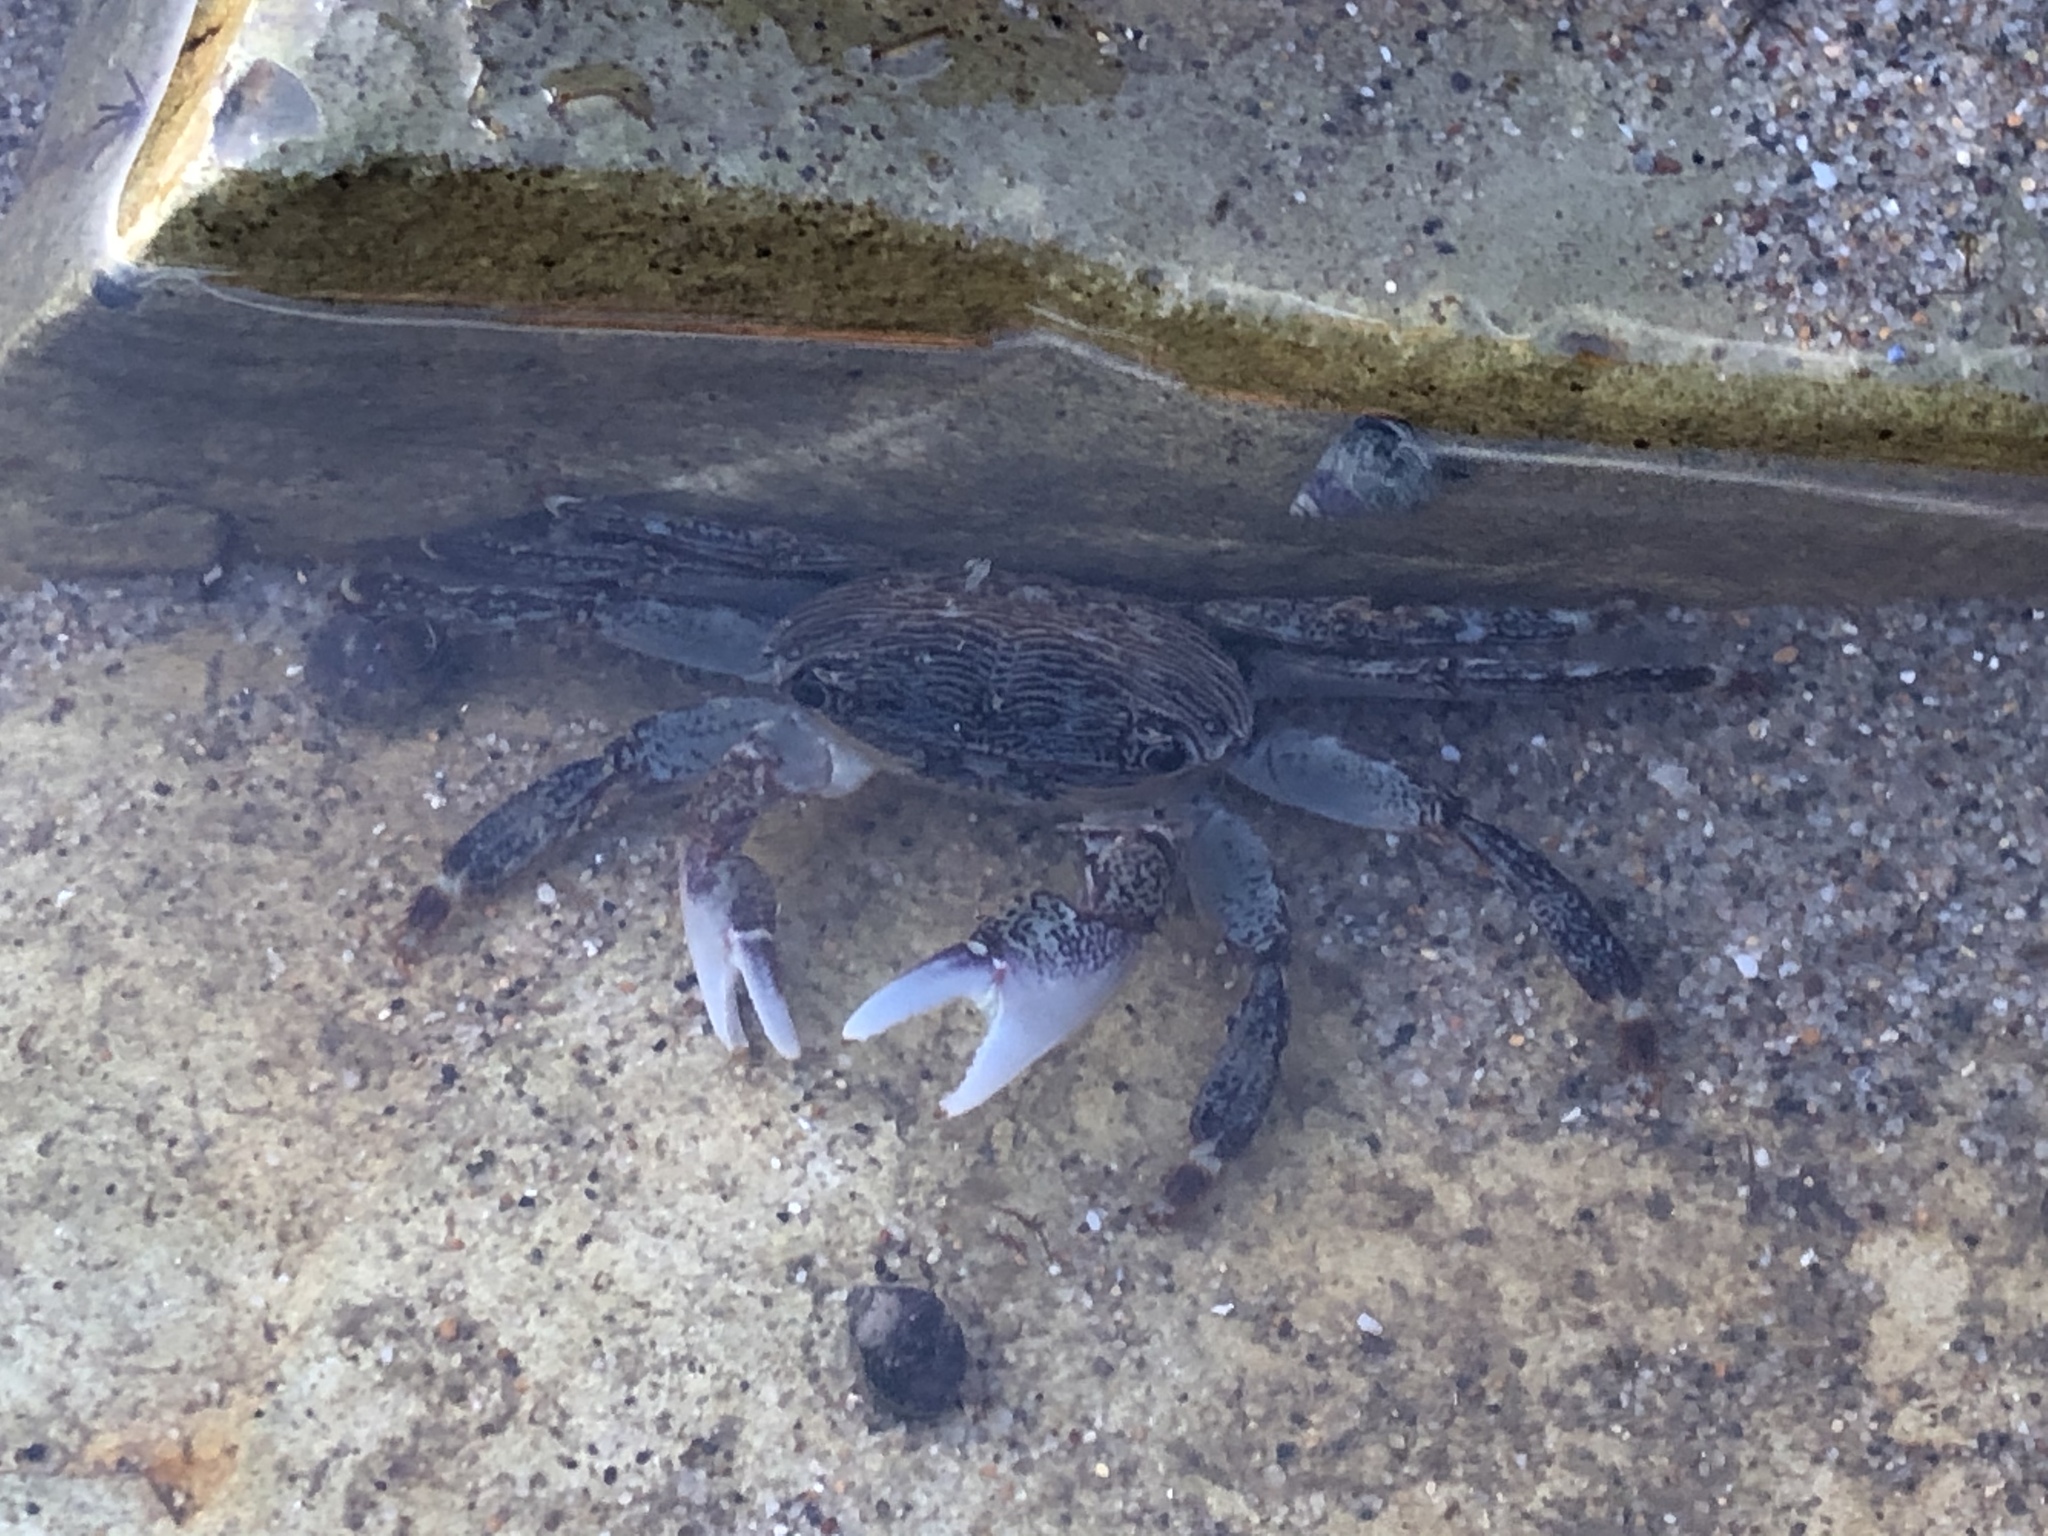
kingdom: Animalia
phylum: Arthropoda
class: Malacostraca
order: Decapoda
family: Grapsidae
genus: Pachygrapsus
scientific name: Pachygrapsus crassipes
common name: Striped shore crab
